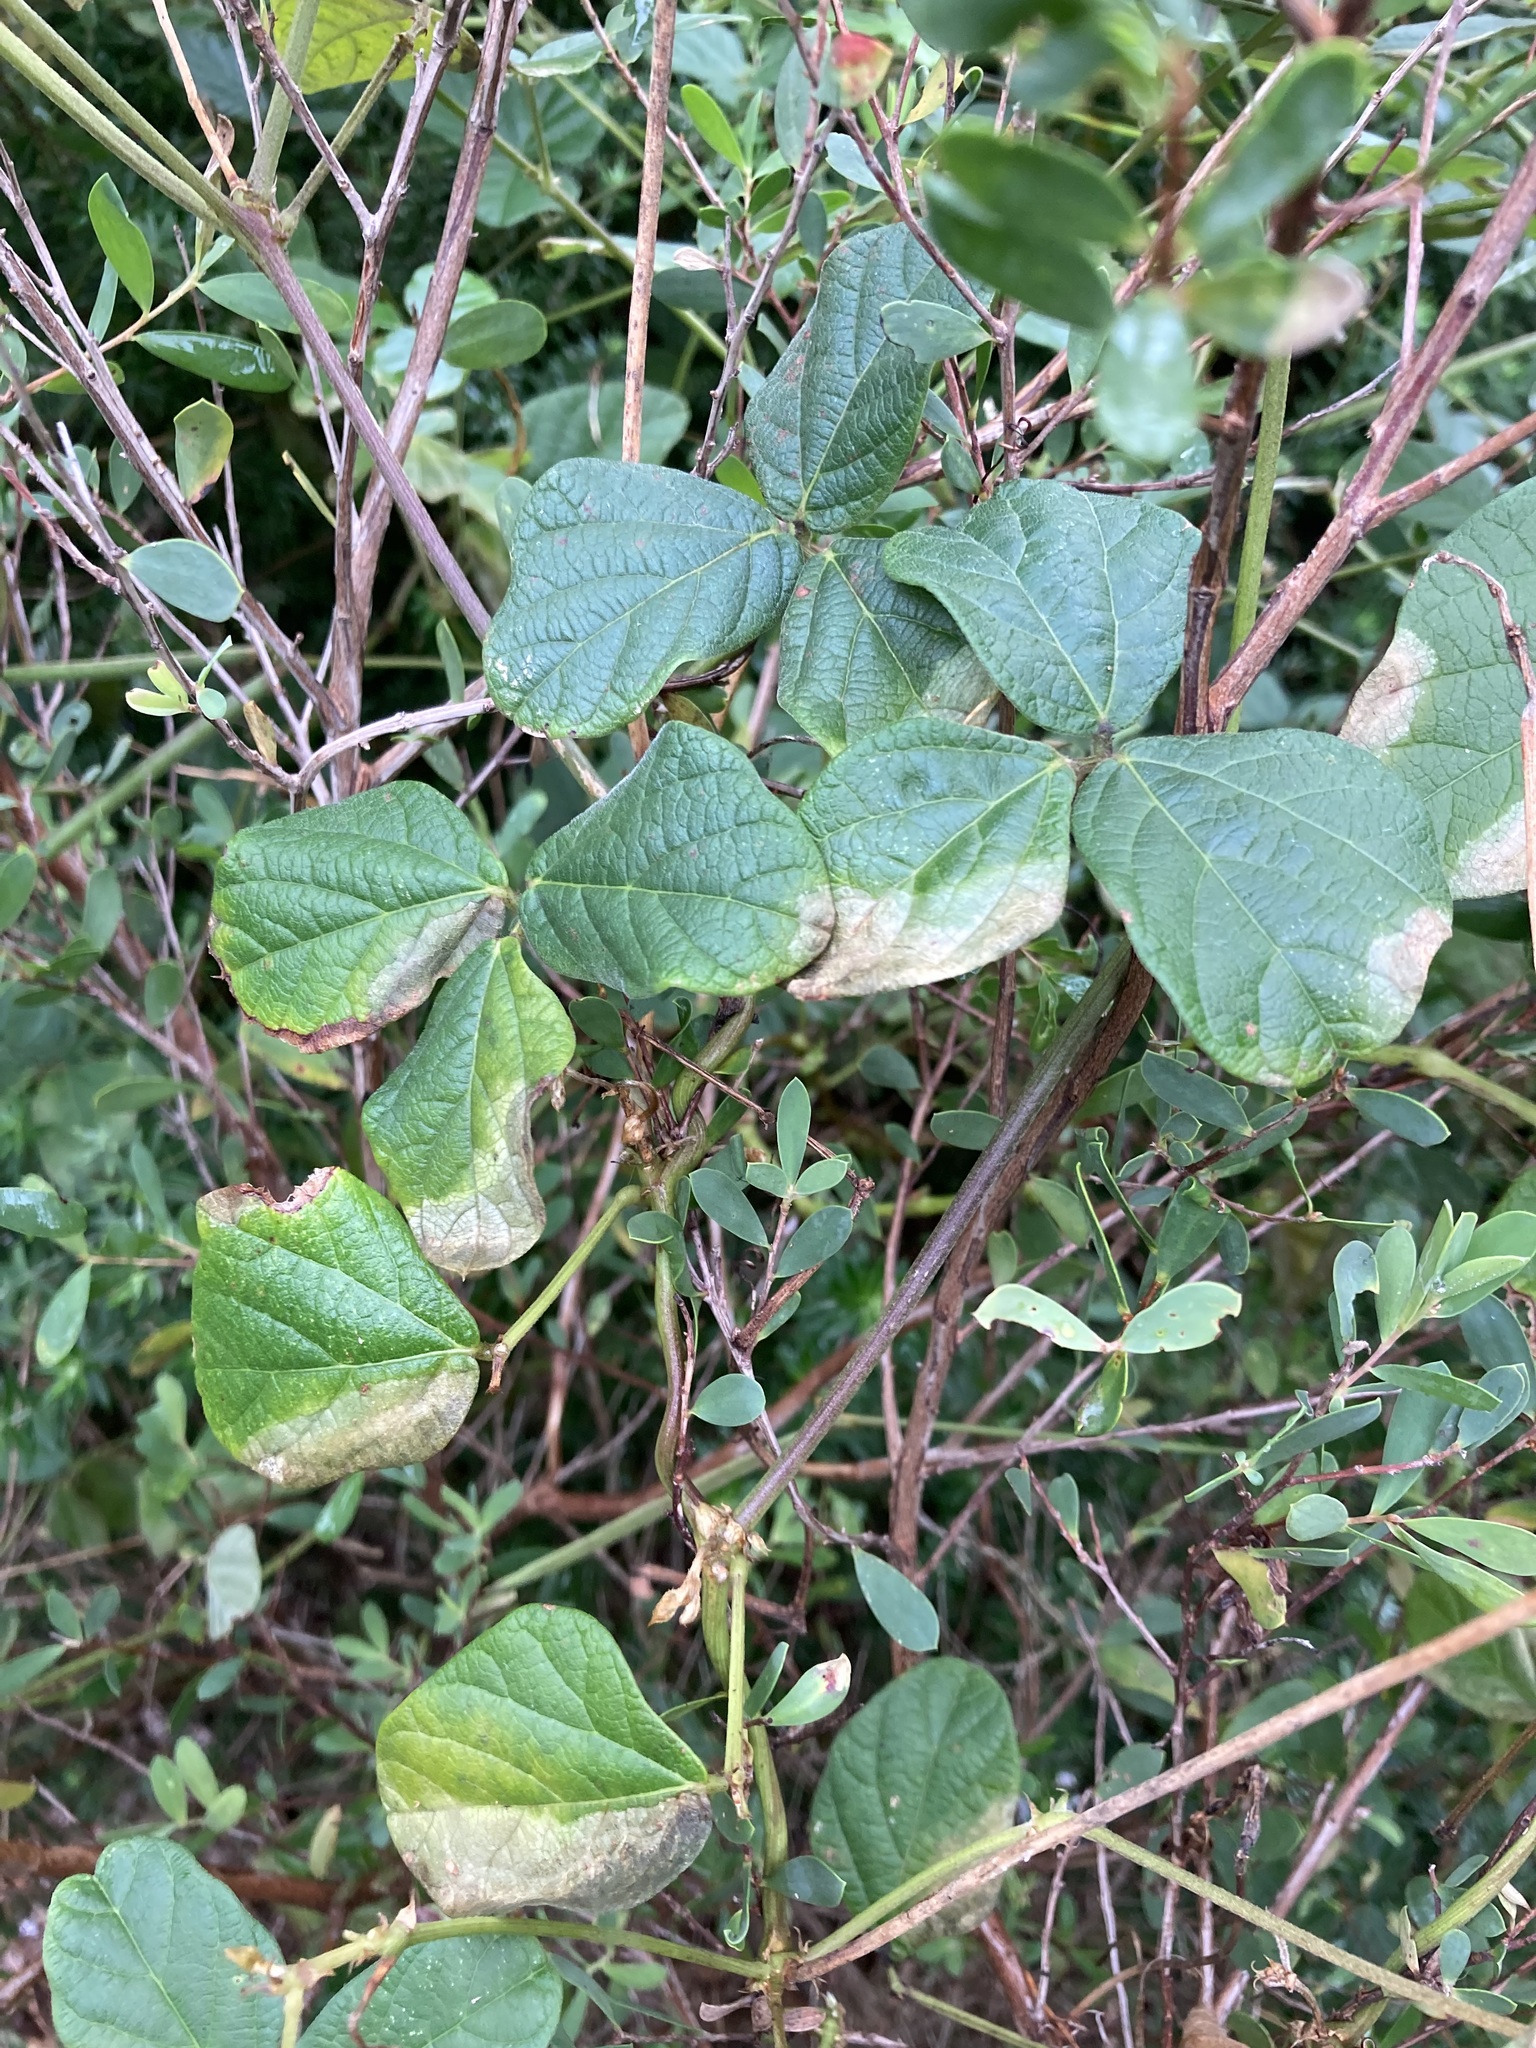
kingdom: Plantae
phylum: Tracheophyta
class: Magnoliopsida
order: Fabales
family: Fabaceae
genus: Macroptilium
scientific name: Macroptilium atropurpureum
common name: Purple bushbean
